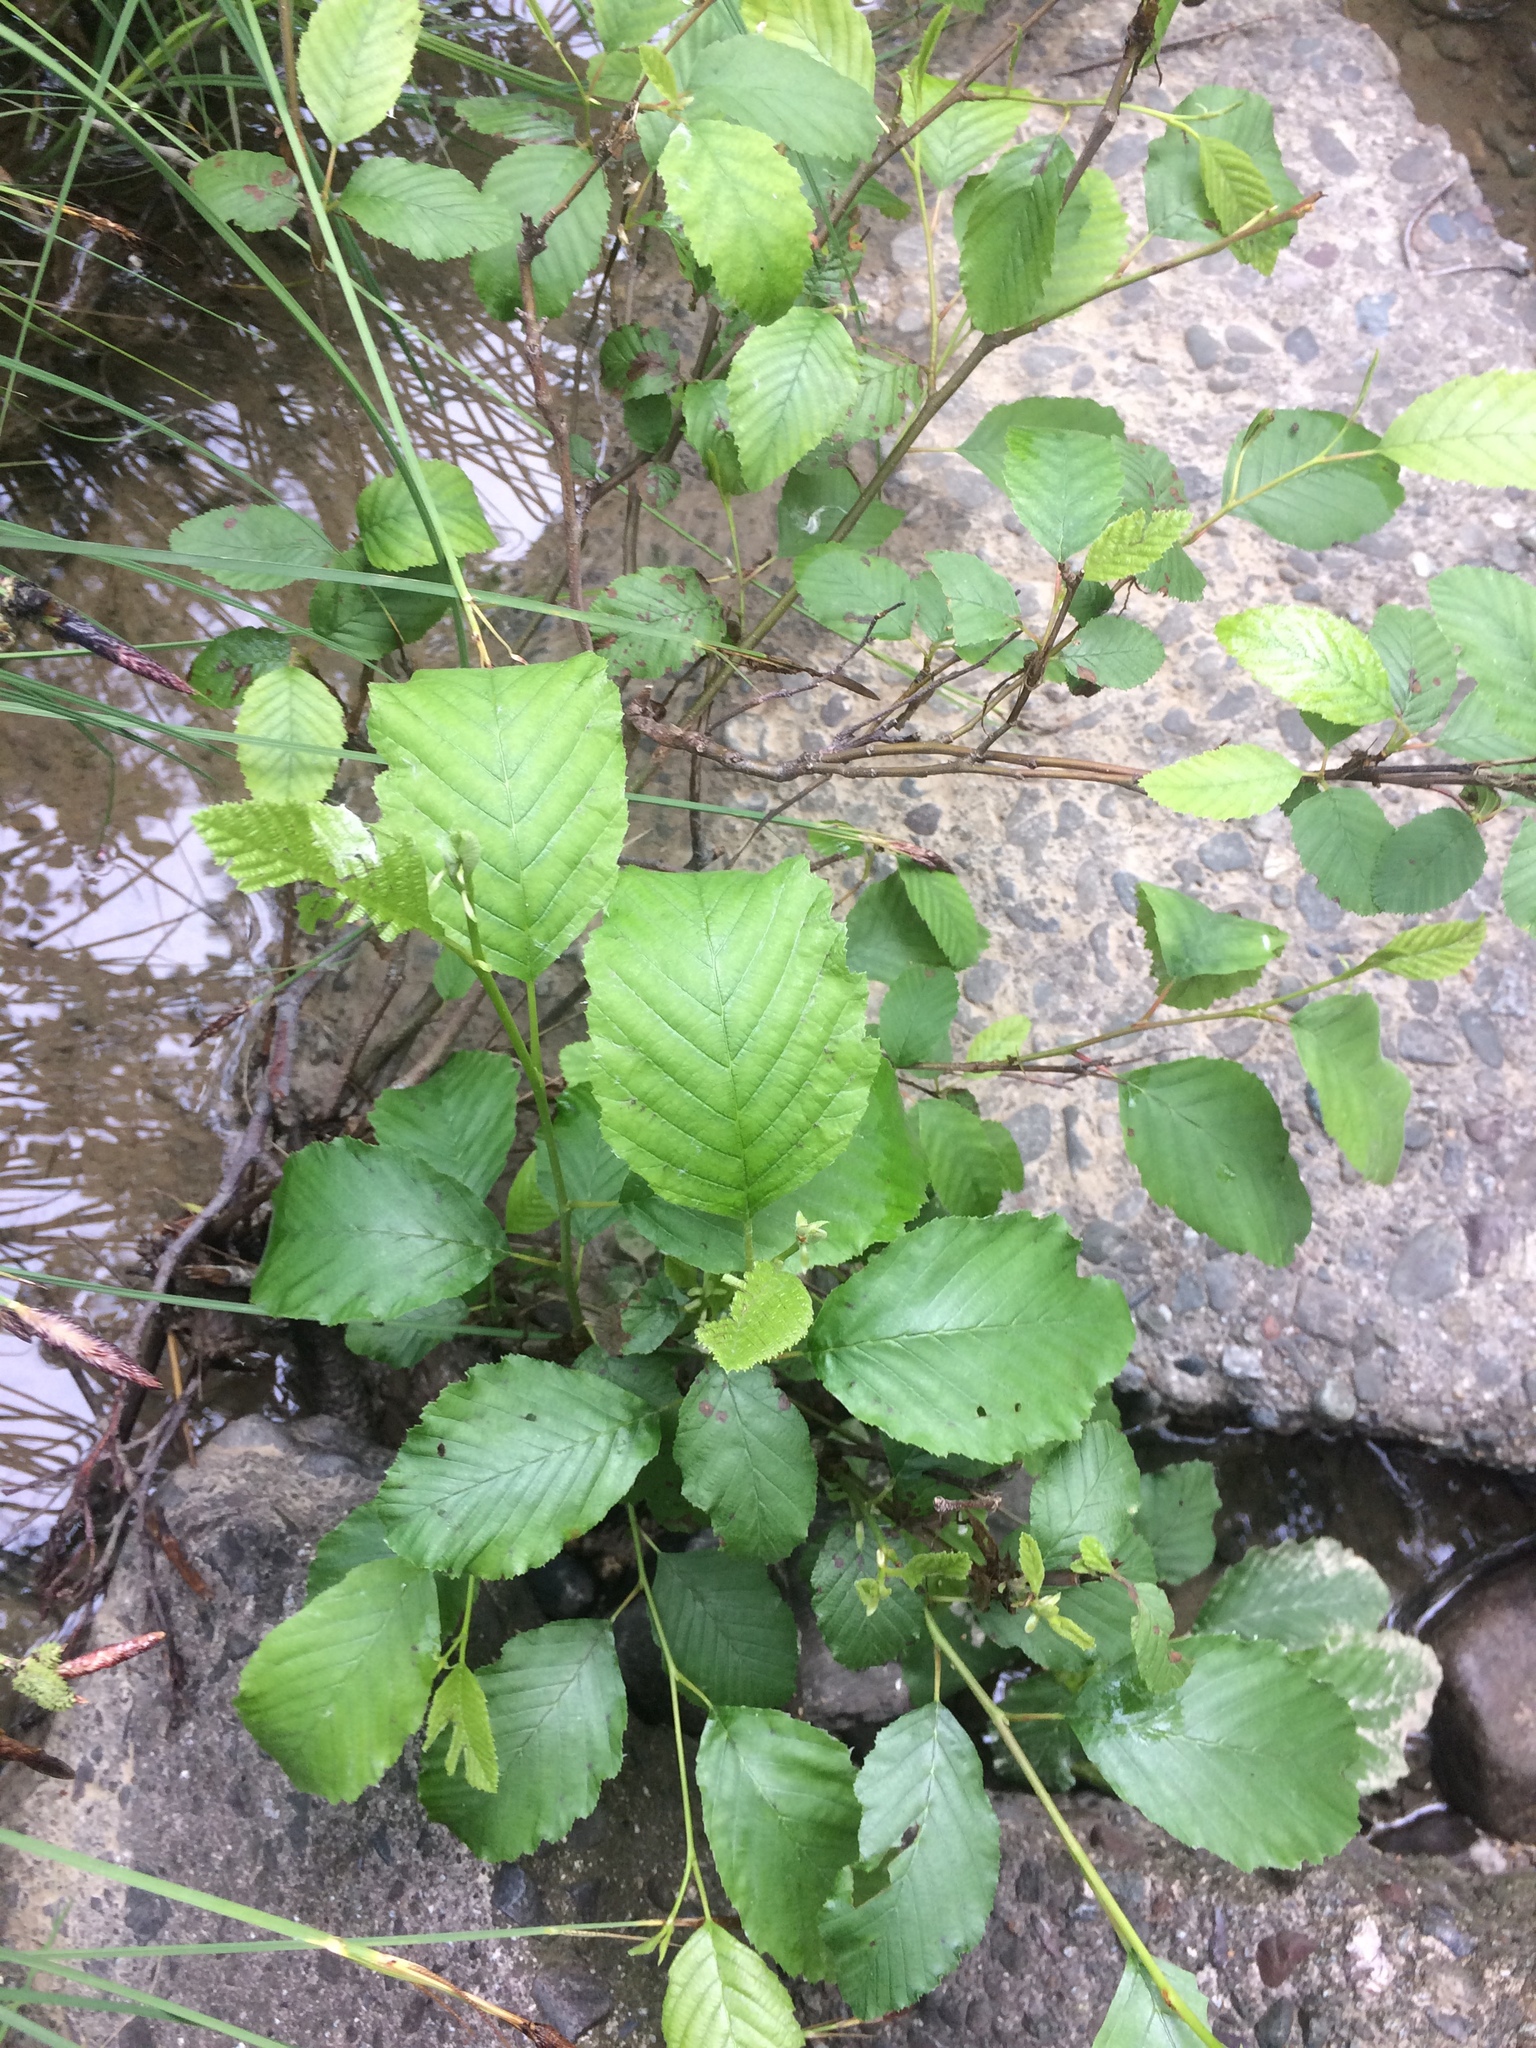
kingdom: Plantae
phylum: Tracheophyta
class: Magnoliopsida
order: Fagales
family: Betulaceae
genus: Alnus
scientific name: Alnus rhombifolia
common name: California alder
